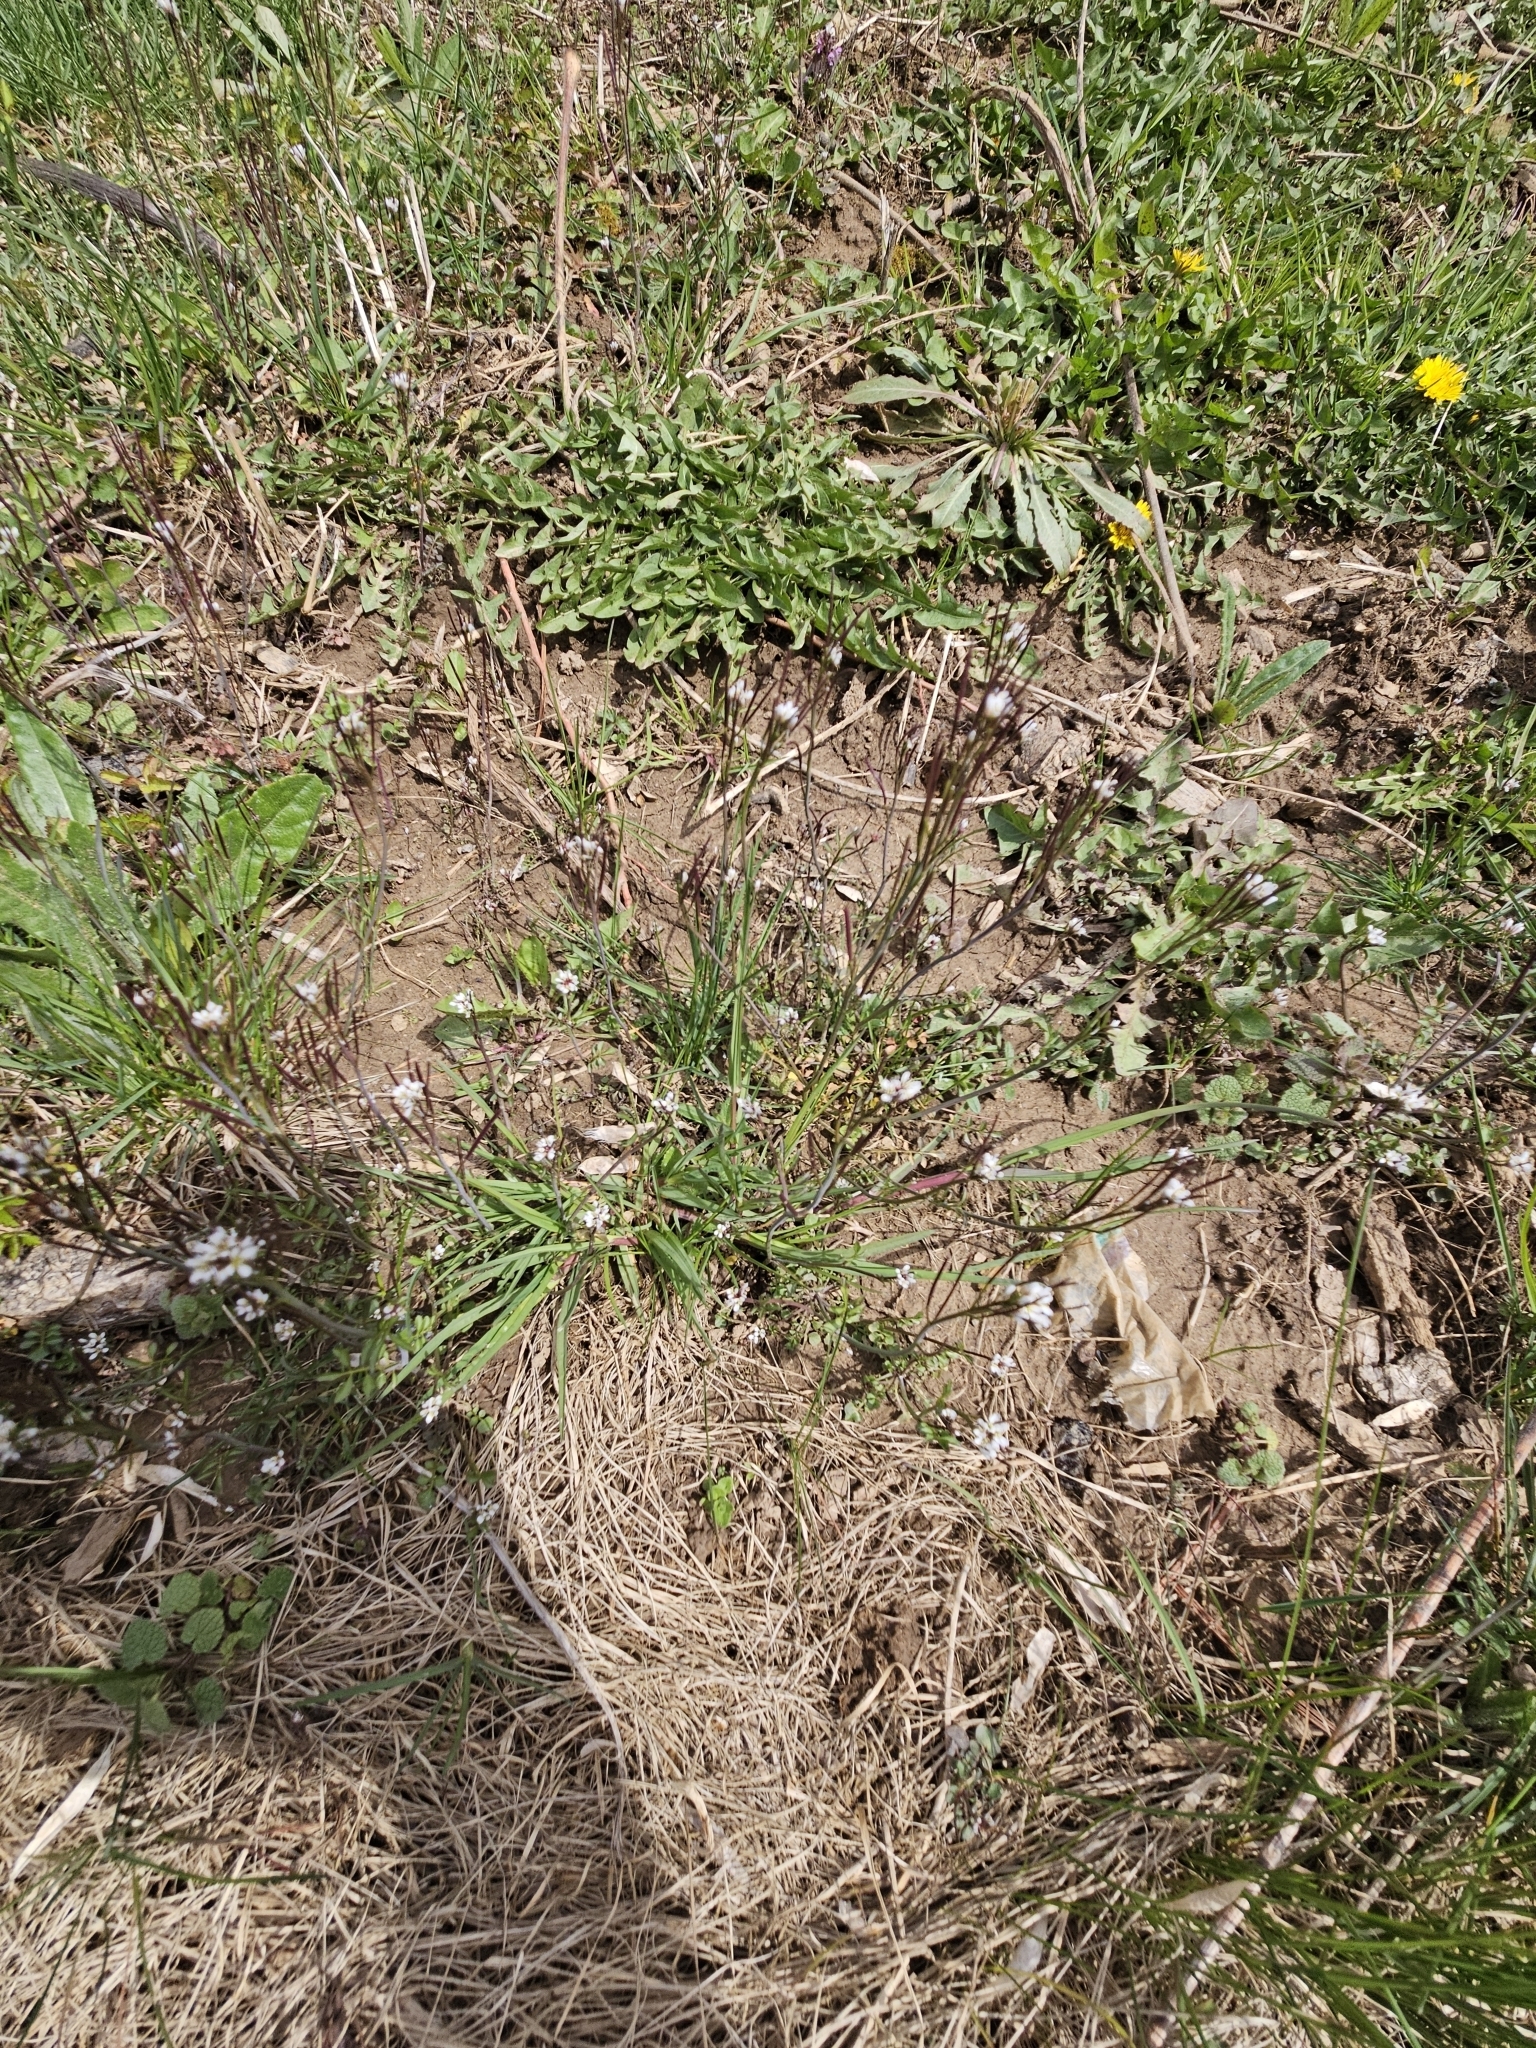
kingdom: Plantae
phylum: Tracheophyta
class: Magnoliopsida
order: Brassicales
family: Brassicaceae
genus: Cardamine
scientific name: Cardamine hirsuta
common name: Hairy bittercress
